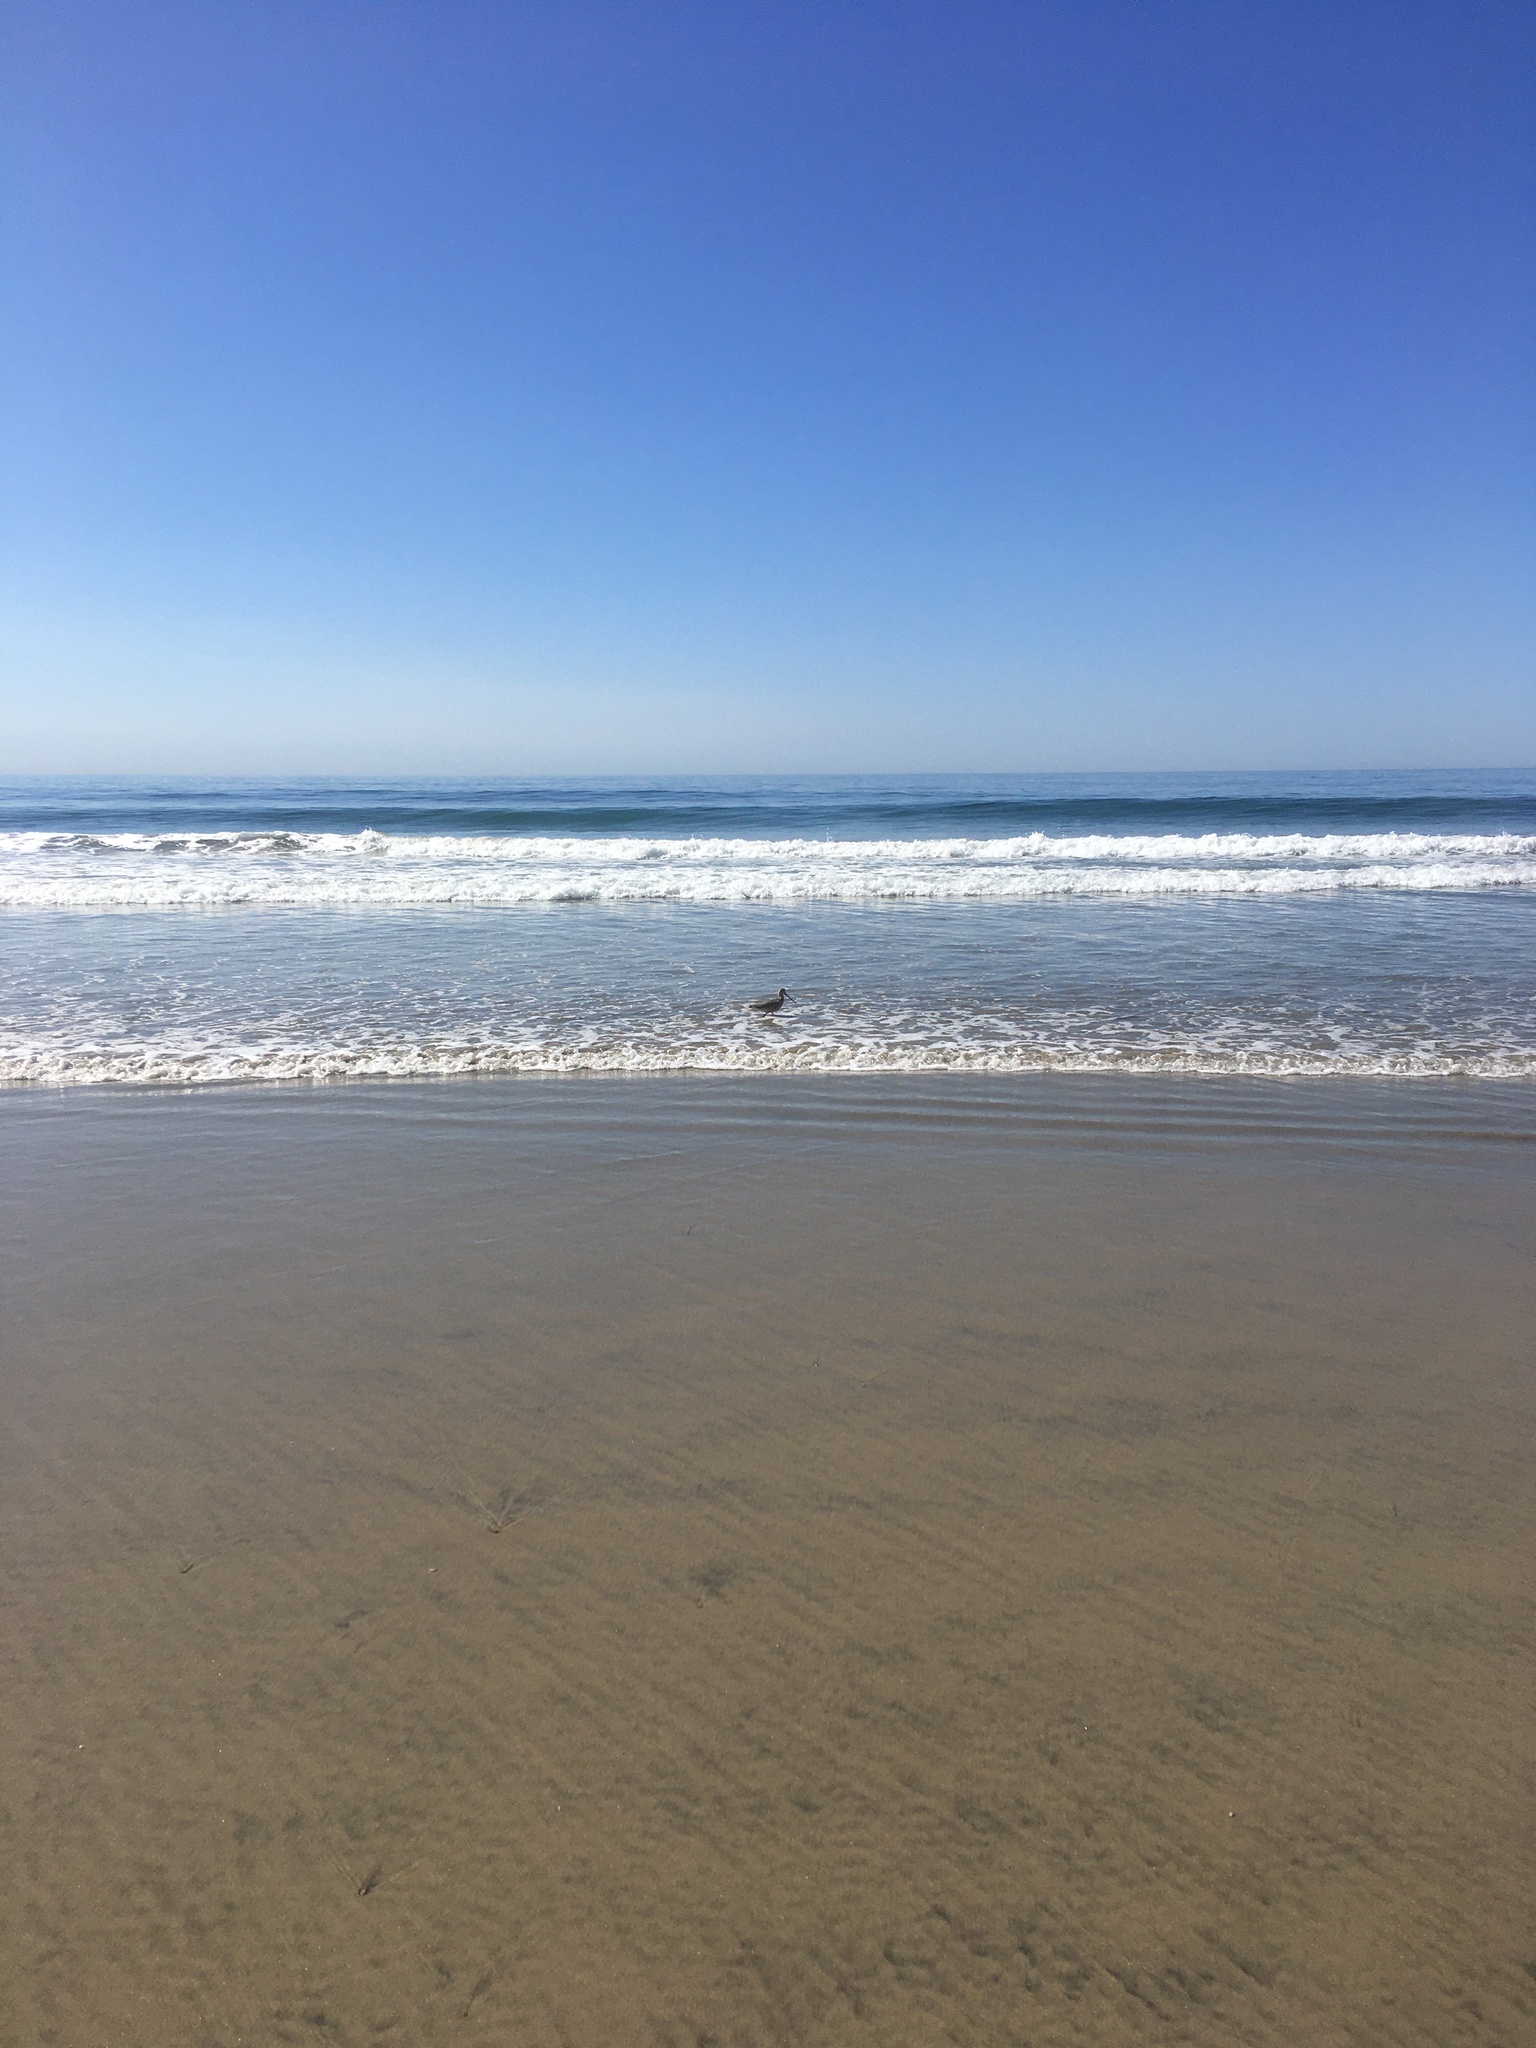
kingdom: Animalia
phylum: Chordata
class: Aves
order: Charadriiformes
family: Scolopacidae
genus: Limosa
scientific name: Limosa fedoa
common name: Marbled godwit
